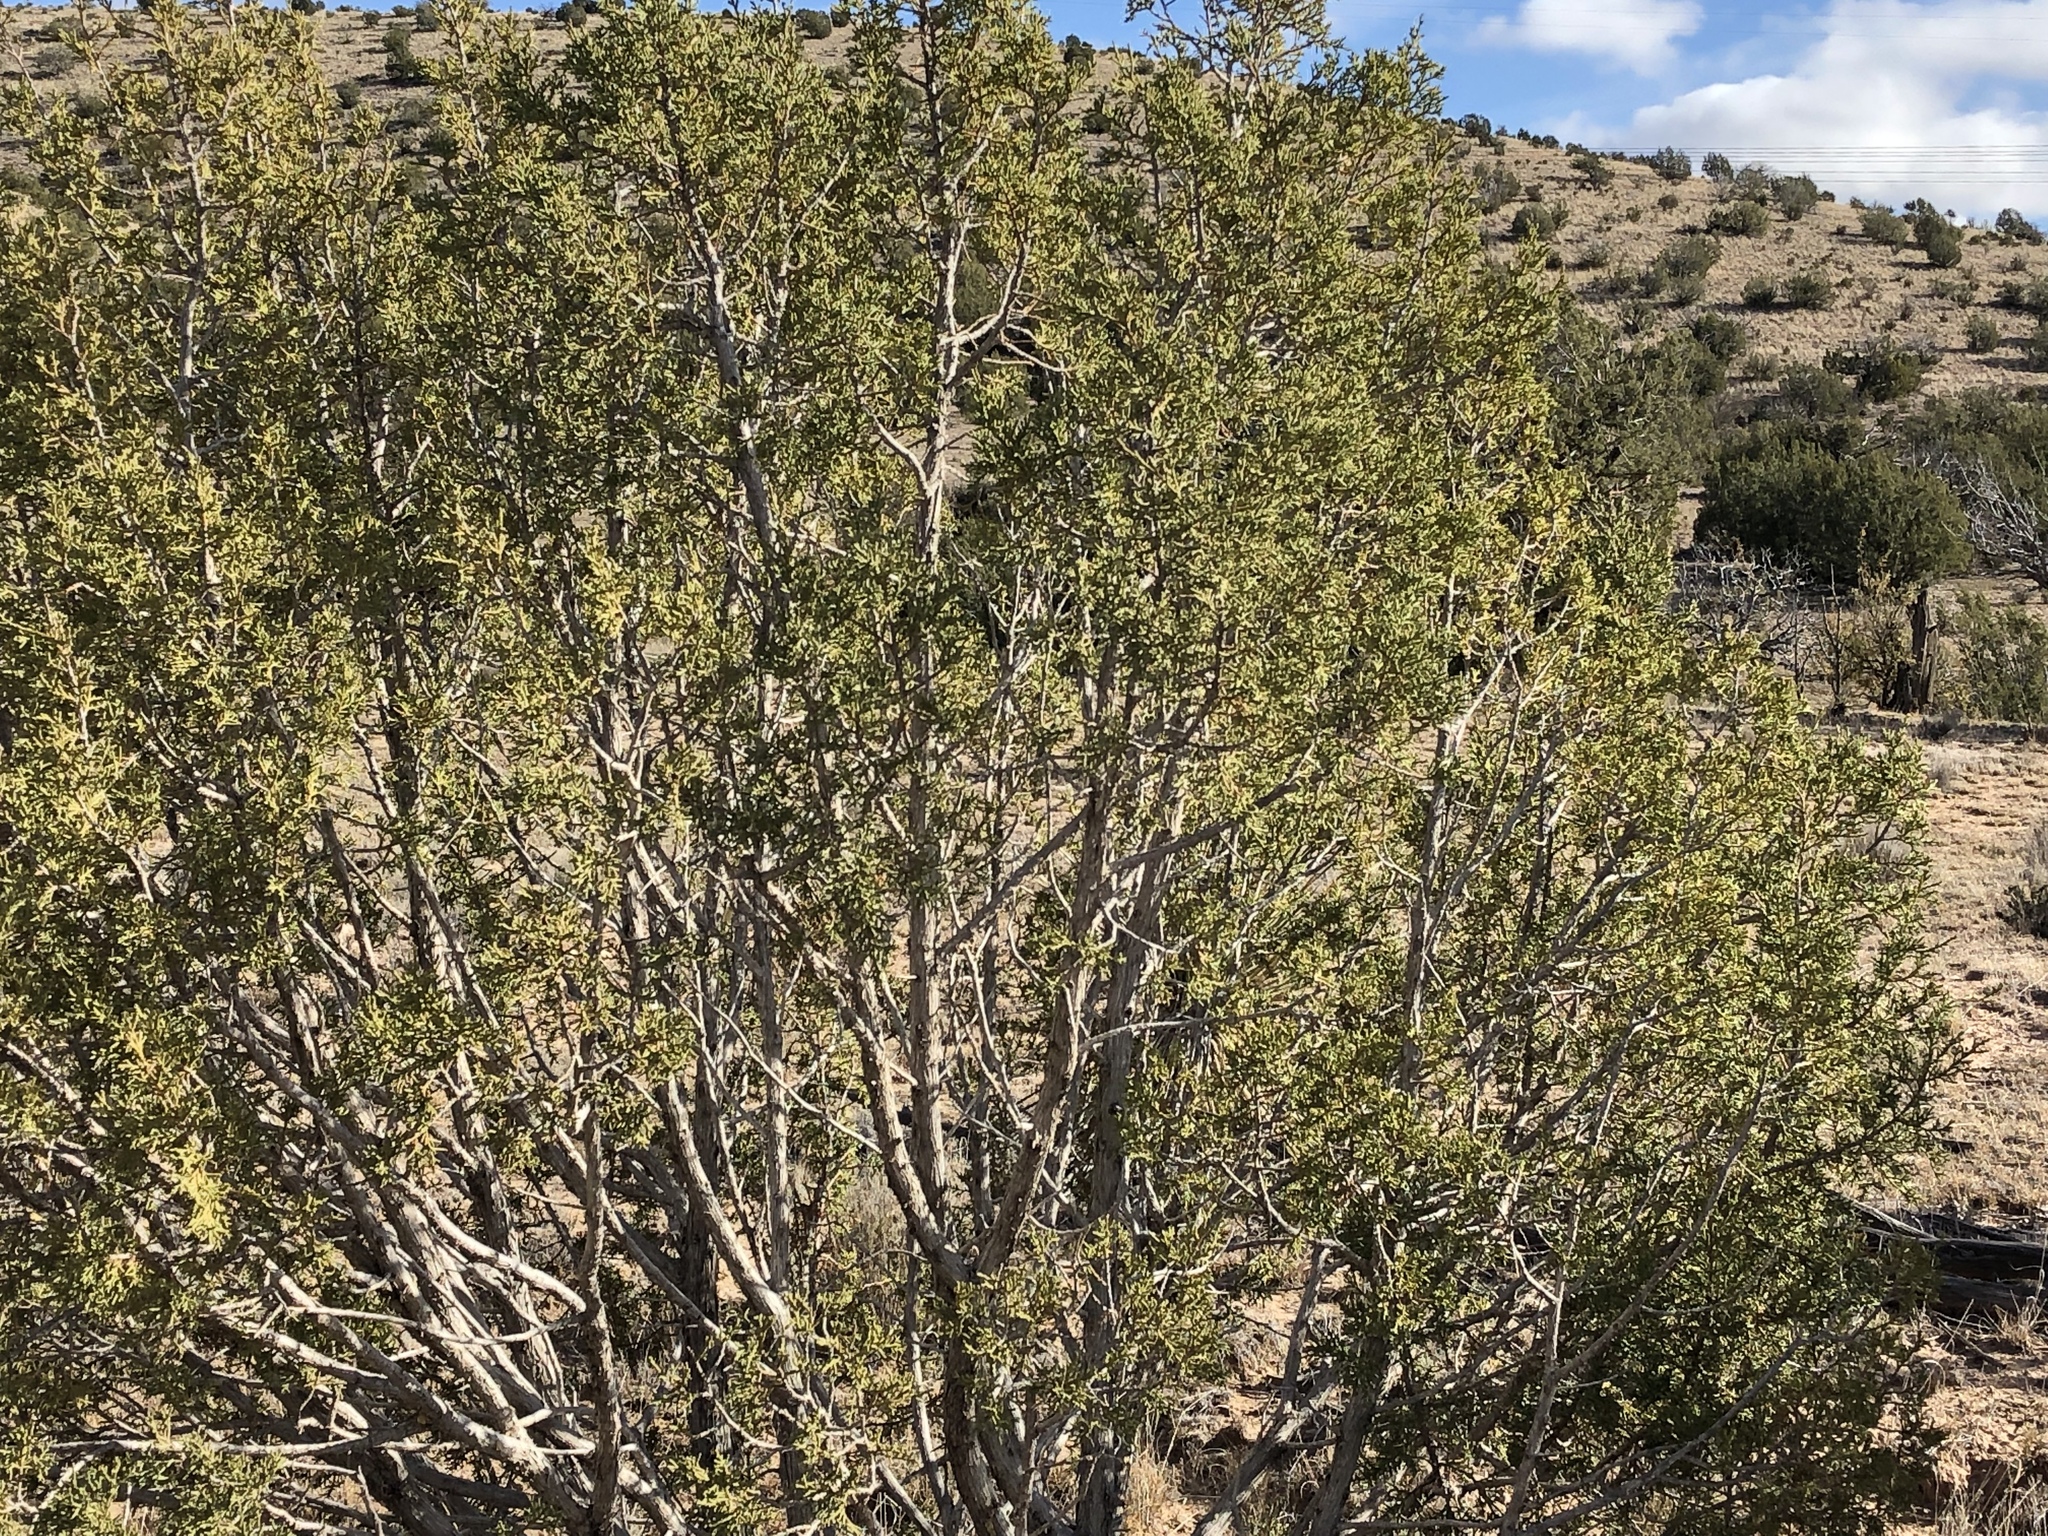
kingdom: Plantae
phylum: Tracheophyta
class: Magnoliopsida
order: Zygophyllales
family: Zygophyllaceae
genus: Larrea
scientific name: Larrea tridentata
